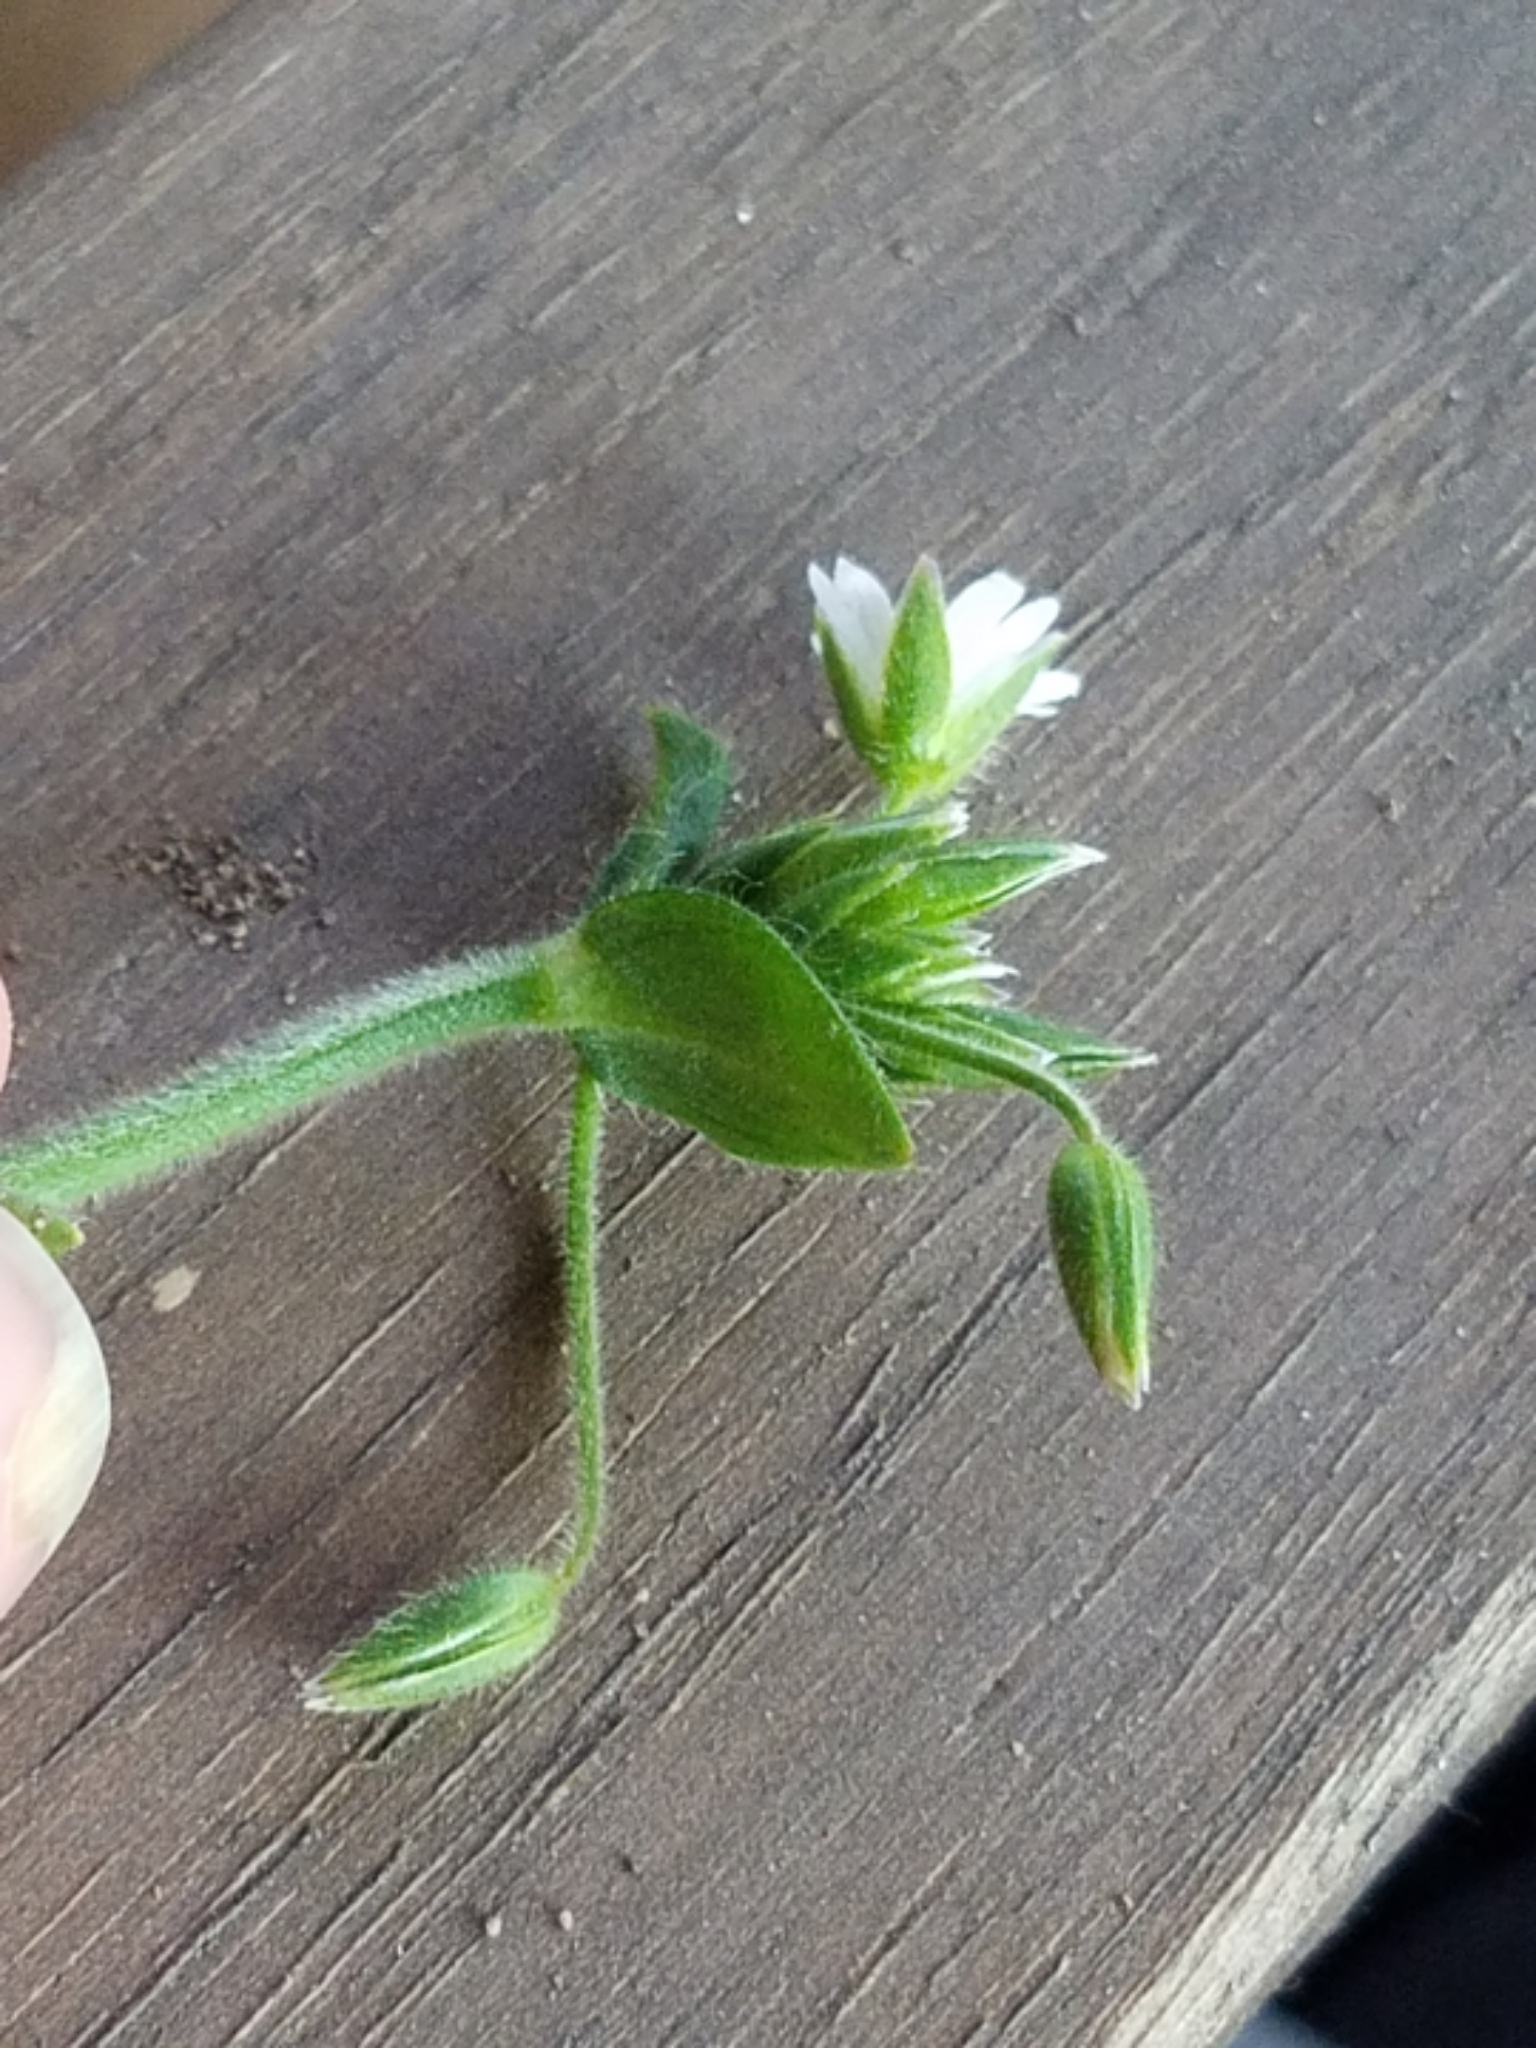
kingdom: Plantae
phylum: Tracheophyta
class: Magnoliopsida
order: Caryophyllales
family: Caryophyllaceae
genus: Cerastium
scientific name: Cerastium nutans
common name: Long-stalked chickweed
